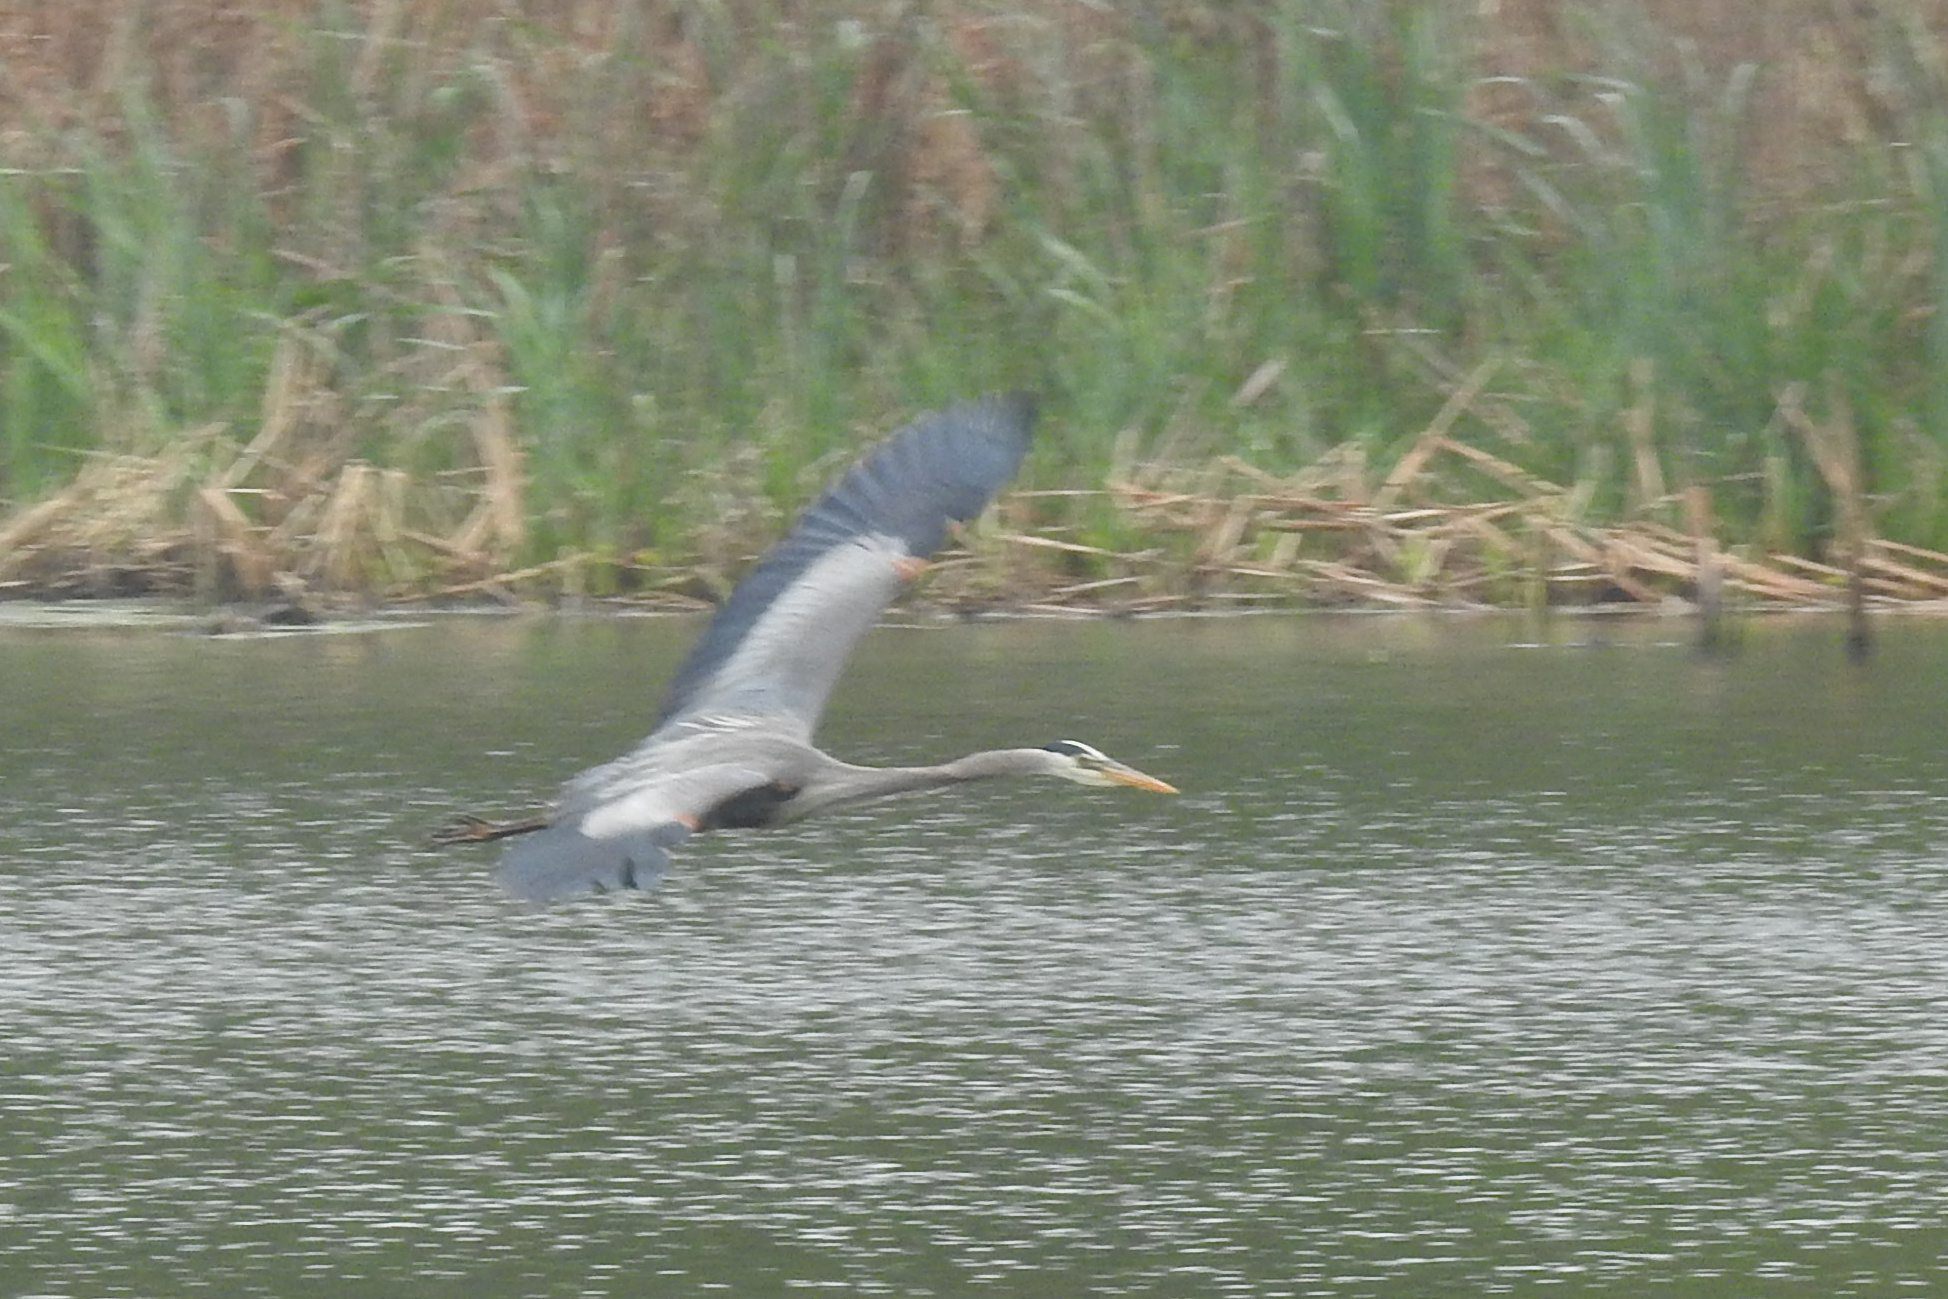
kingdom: Animalia
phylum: Chordata
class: Aves
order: Pelecaniformes
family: Ardeidae
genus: Ardea
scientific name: Ardea herodias
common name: Great blue heron
